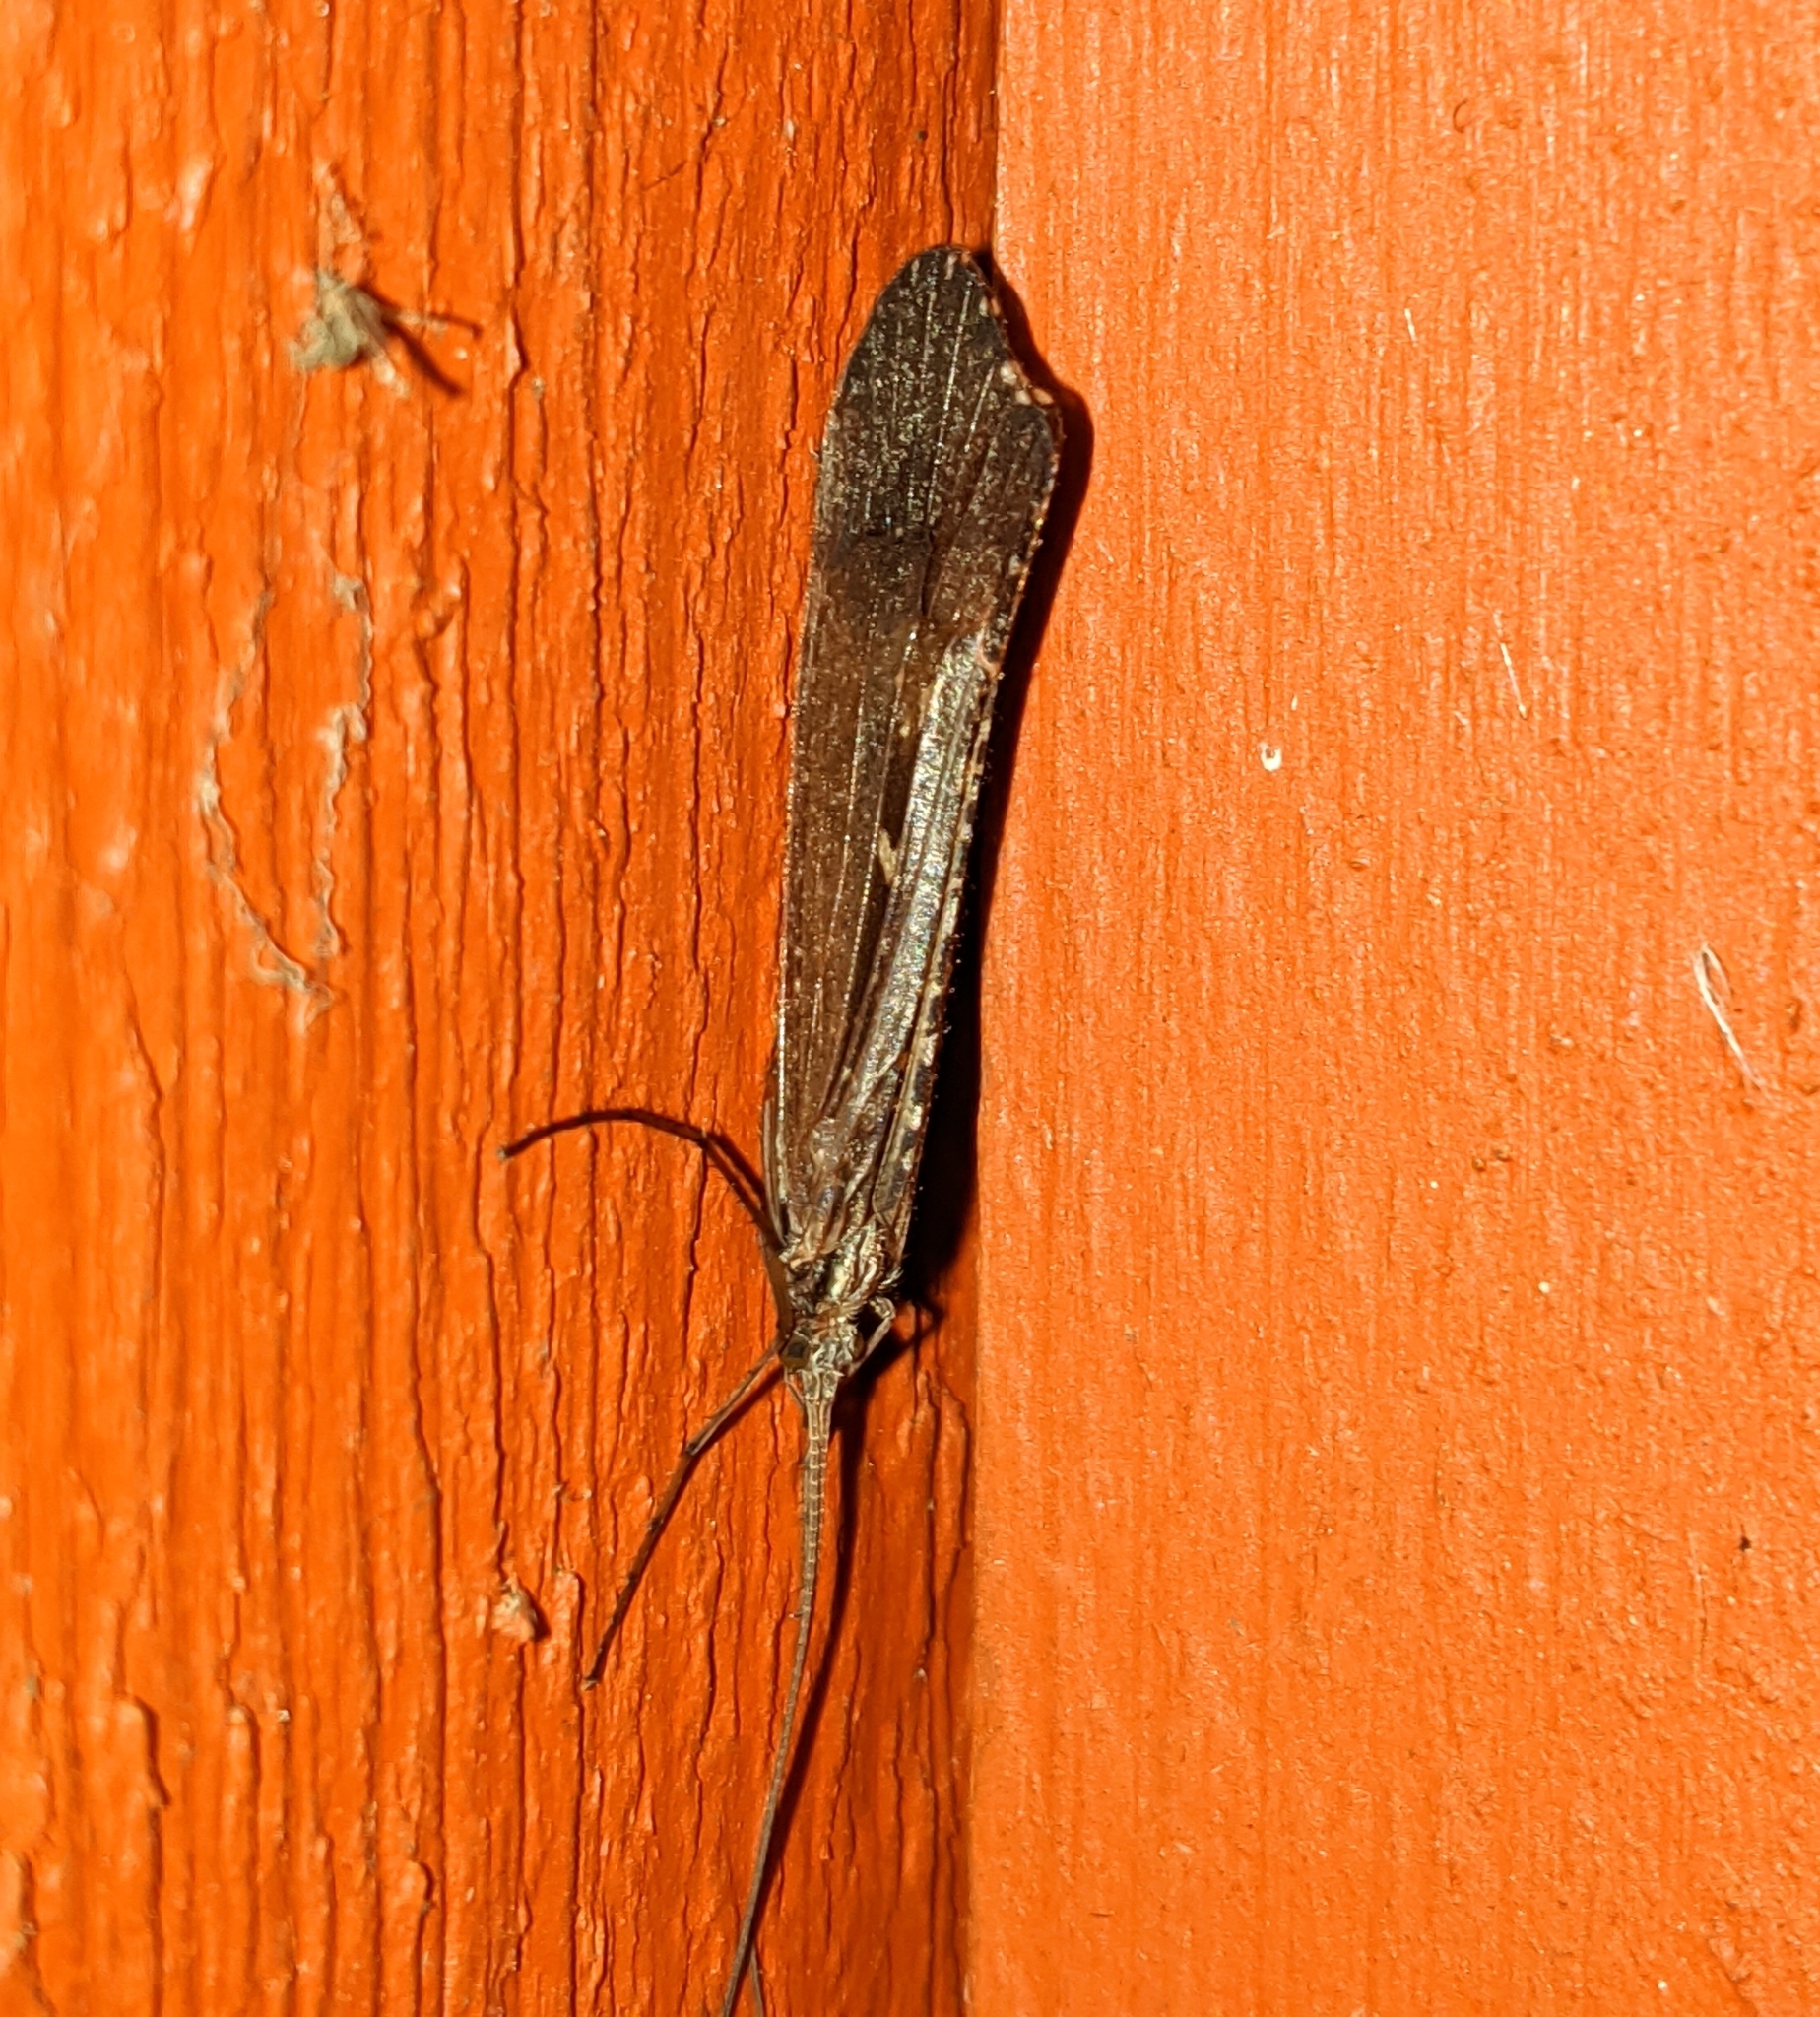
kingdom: Animalia
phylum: Arthropoda
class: Insecta
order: Trichoptera
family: Limnephilidae
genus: Glyphopsyche
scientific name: Glyphopsyche irrorata
